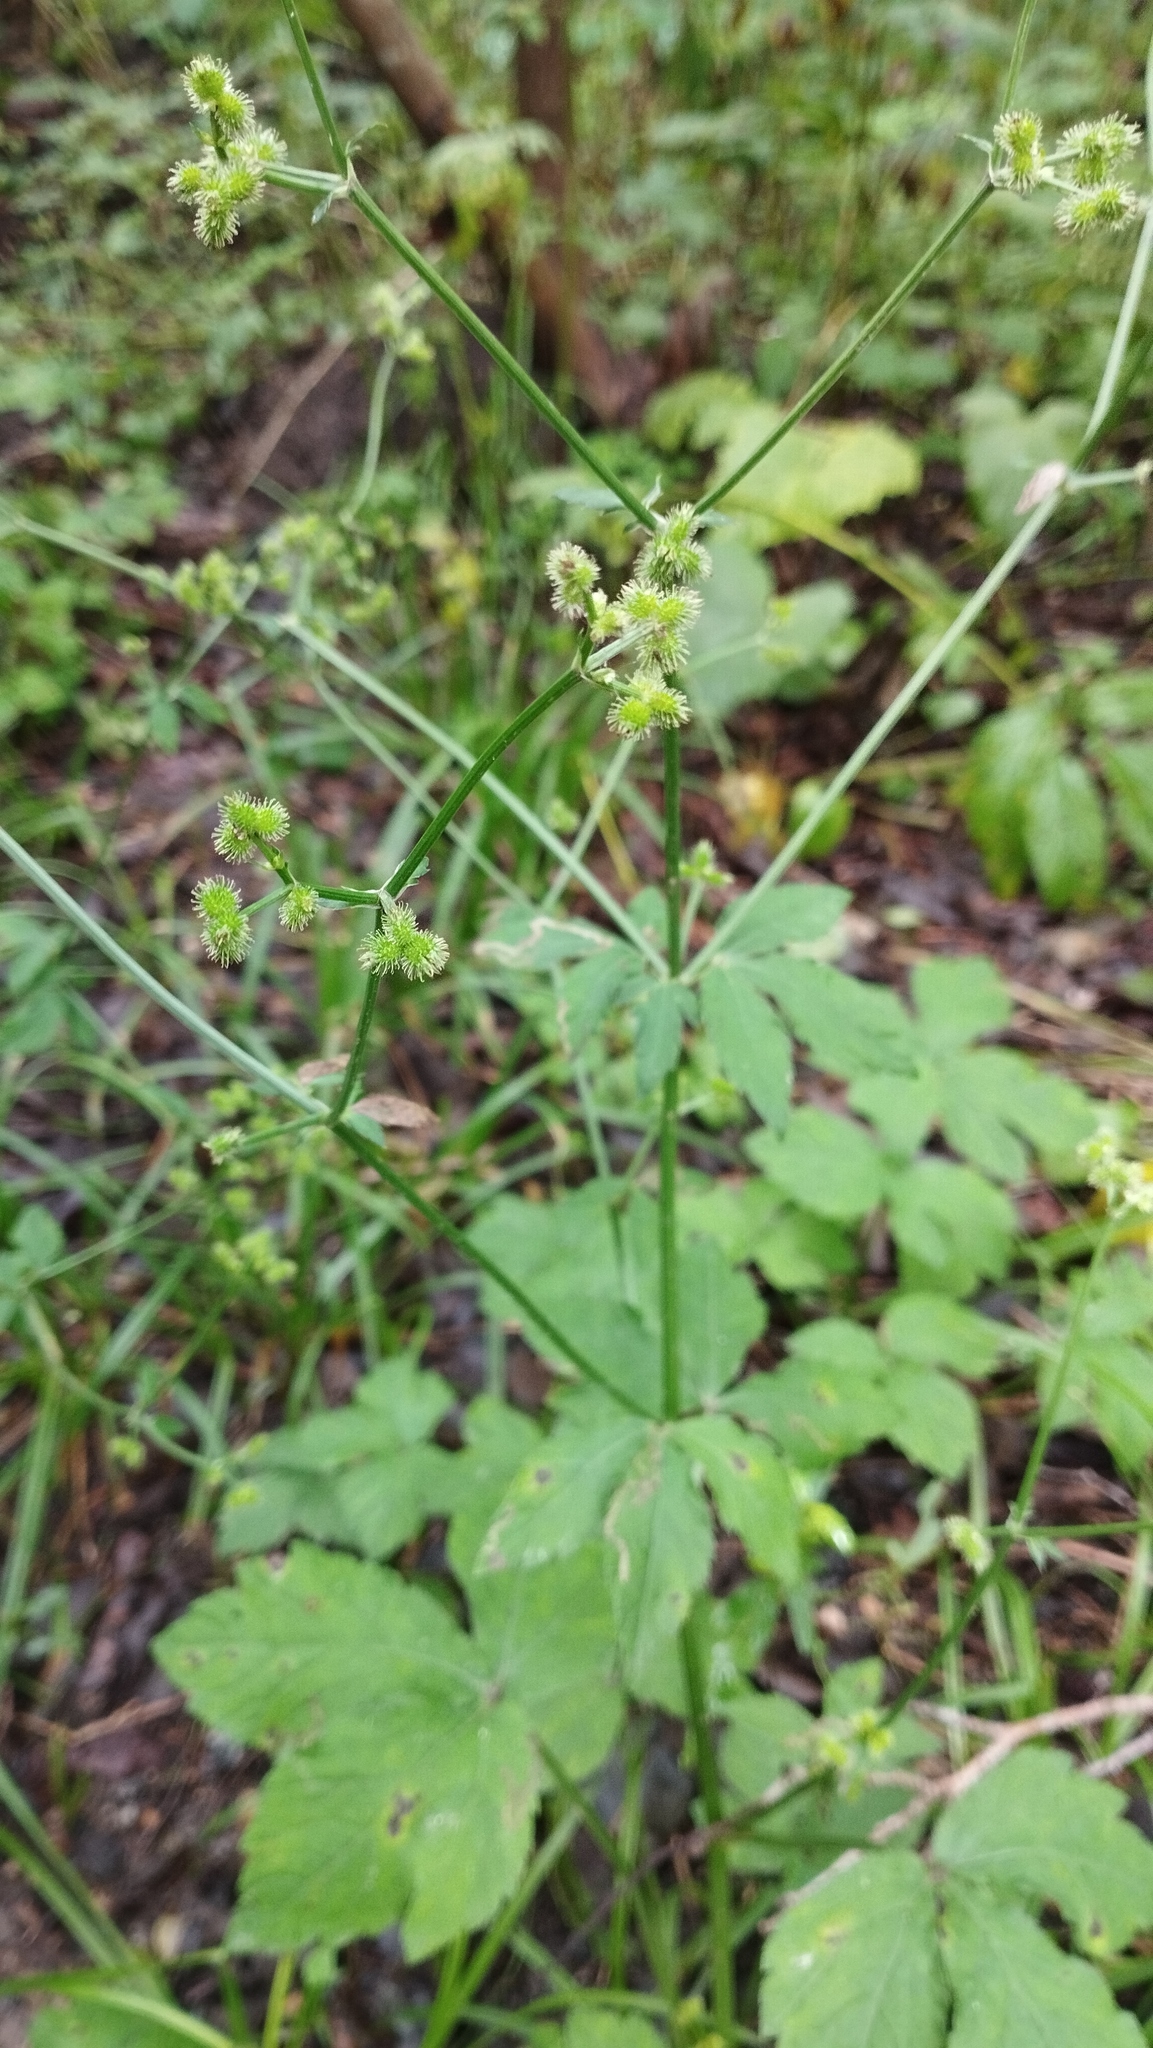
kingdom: Plantae
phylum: Tracheophyta
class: Magnoliopsida
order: Apiales
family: Apiaceae
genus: Sanicula
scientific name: Sanicula chinensis
